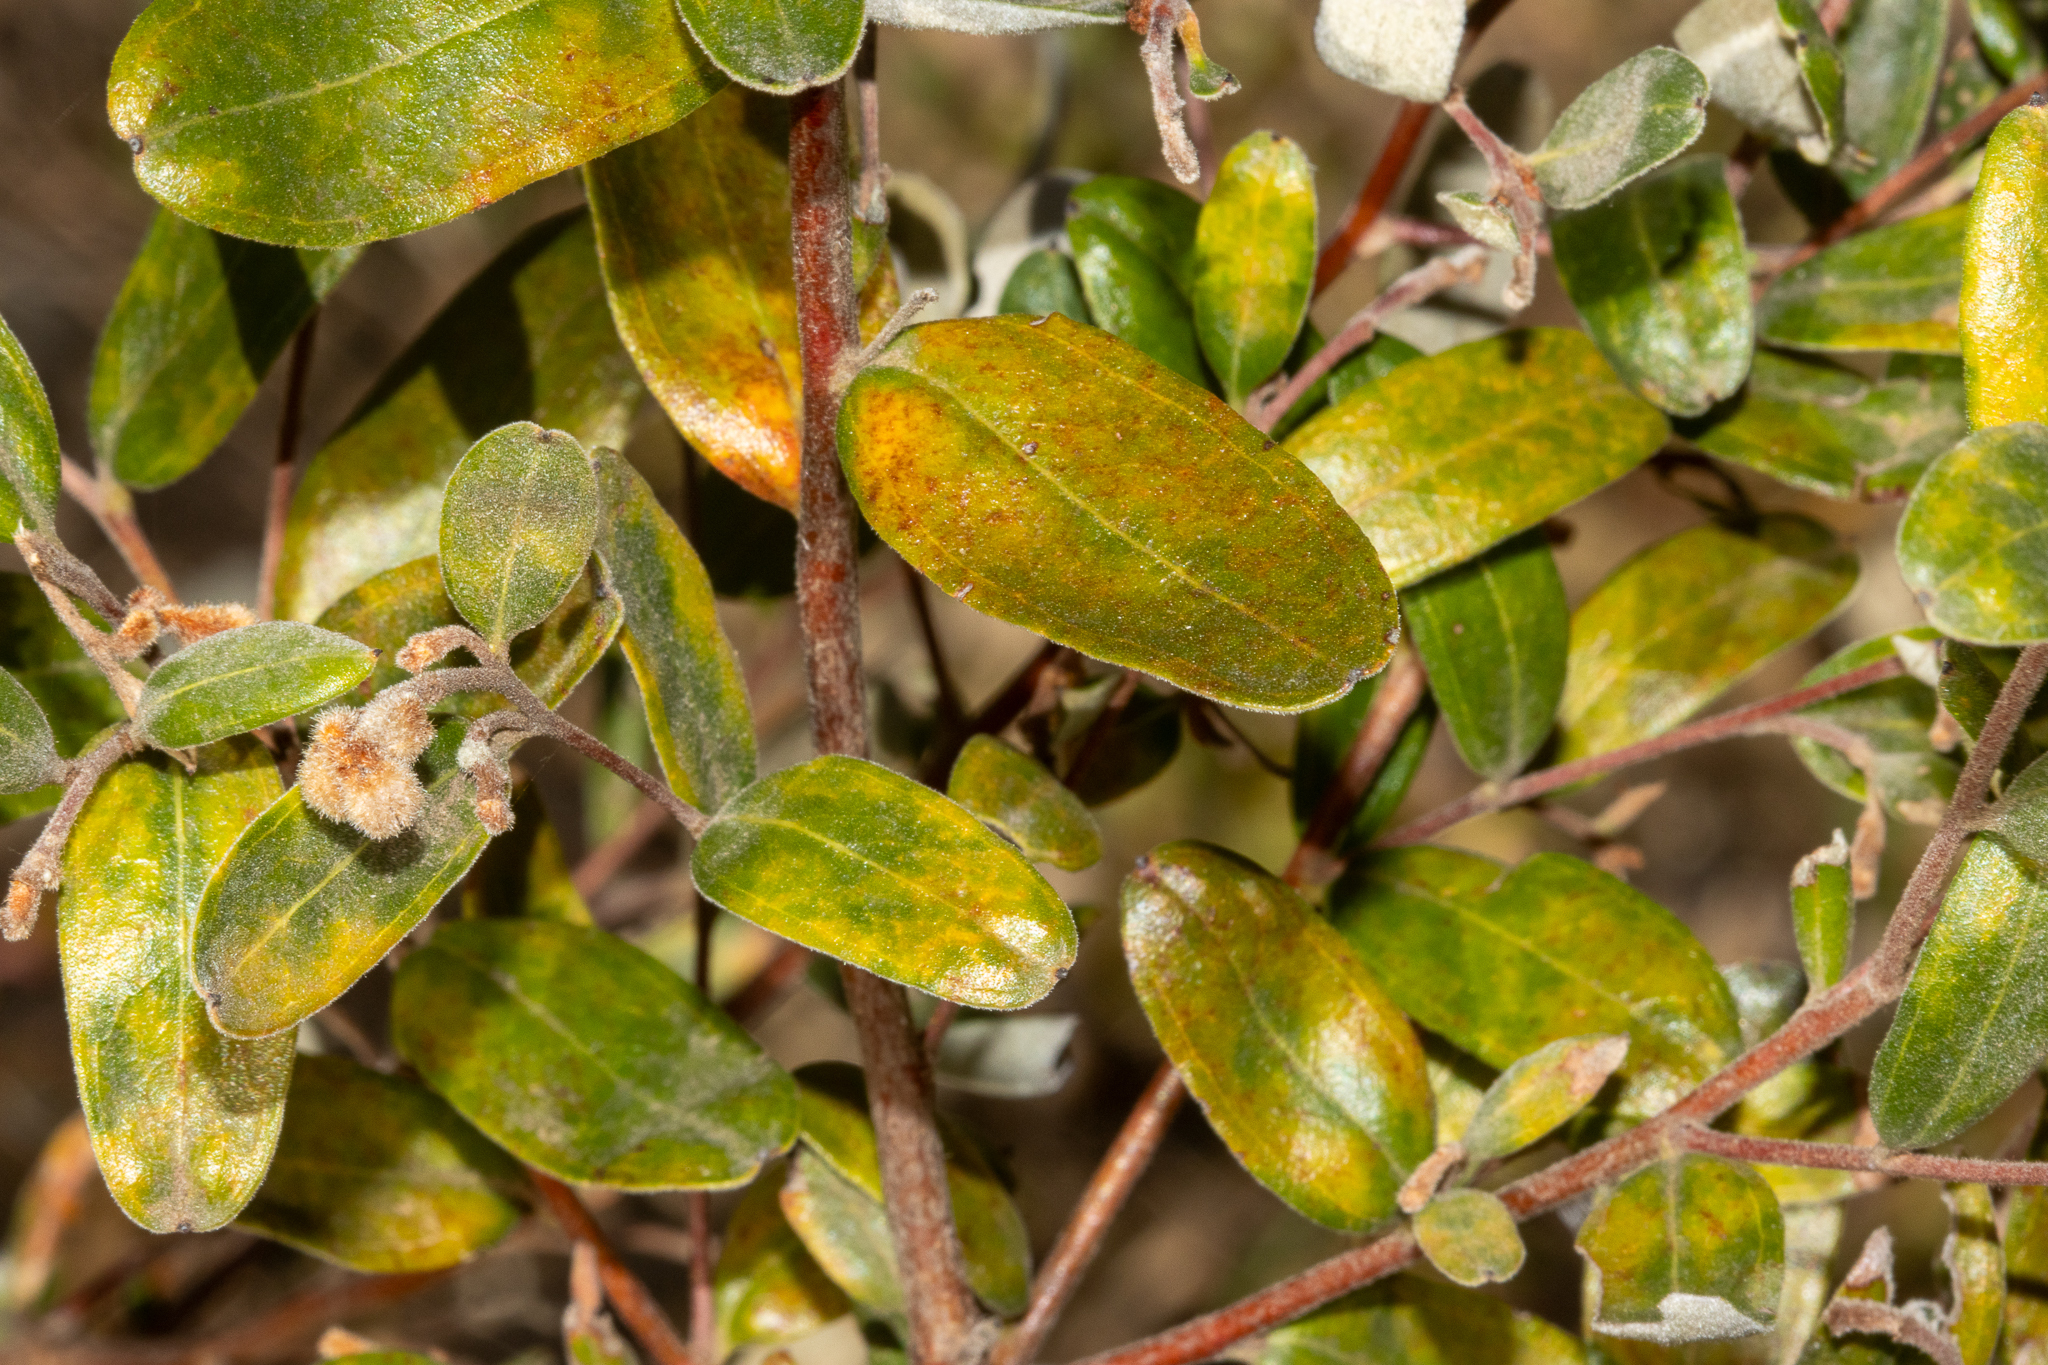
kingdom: Plantae
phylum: Tracheophyta
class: Magnoliopsida
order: Proteales
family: Proteaceae
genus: Grevillea
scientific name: Grevillea chrysophaea
